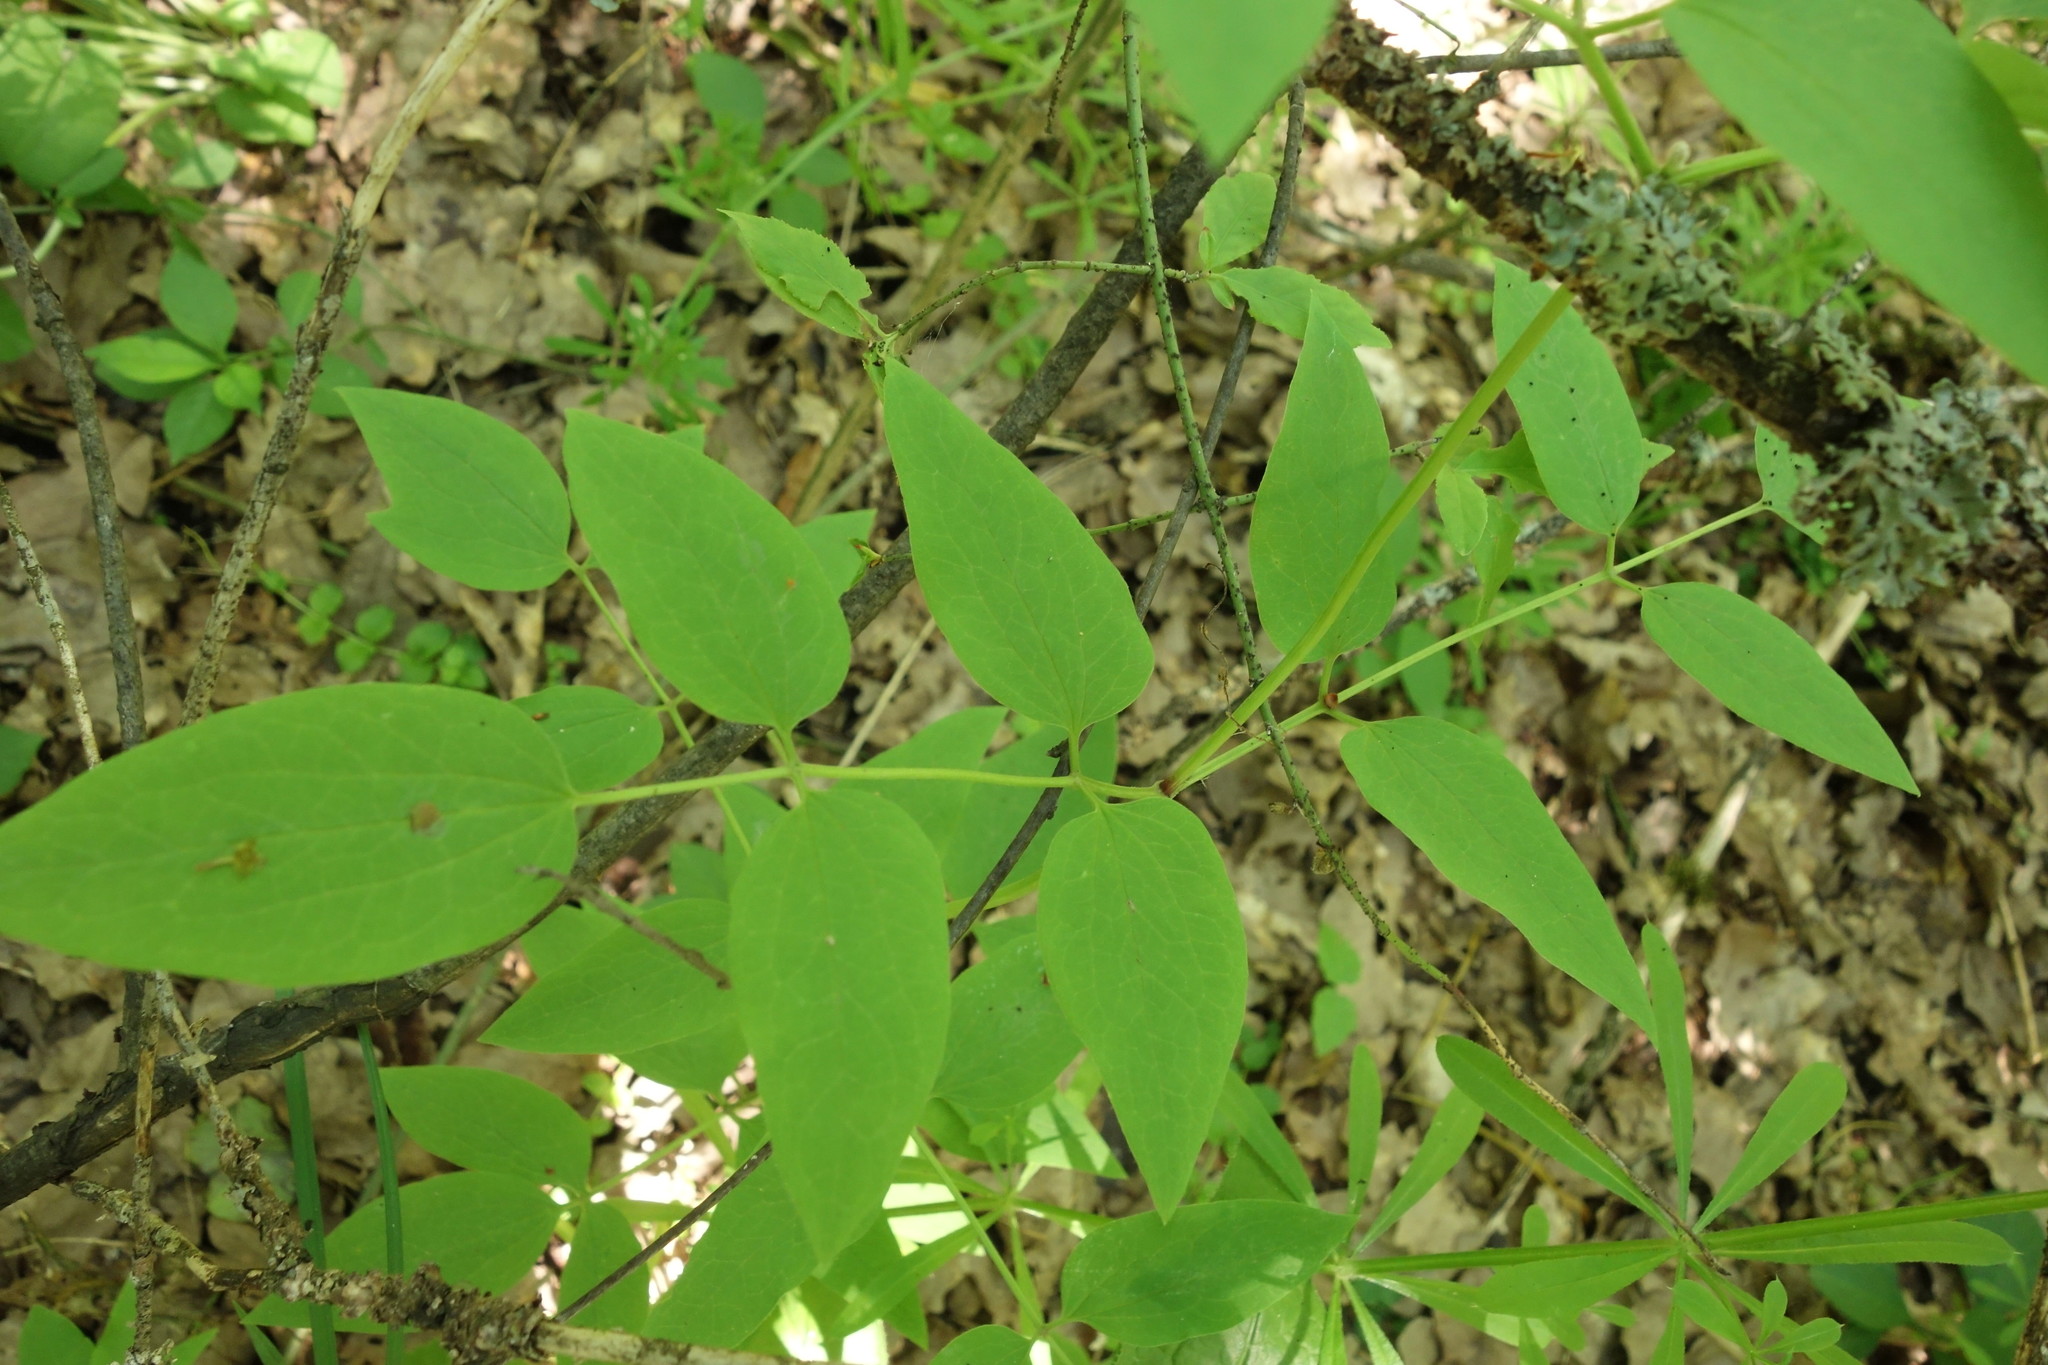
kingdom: Plantae
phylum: Tracheophyta
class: Magnoliopsida
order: Ranunculales
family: Ranunculaceae
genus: Clematis
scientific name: Clematis recta
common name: Ground clematis
